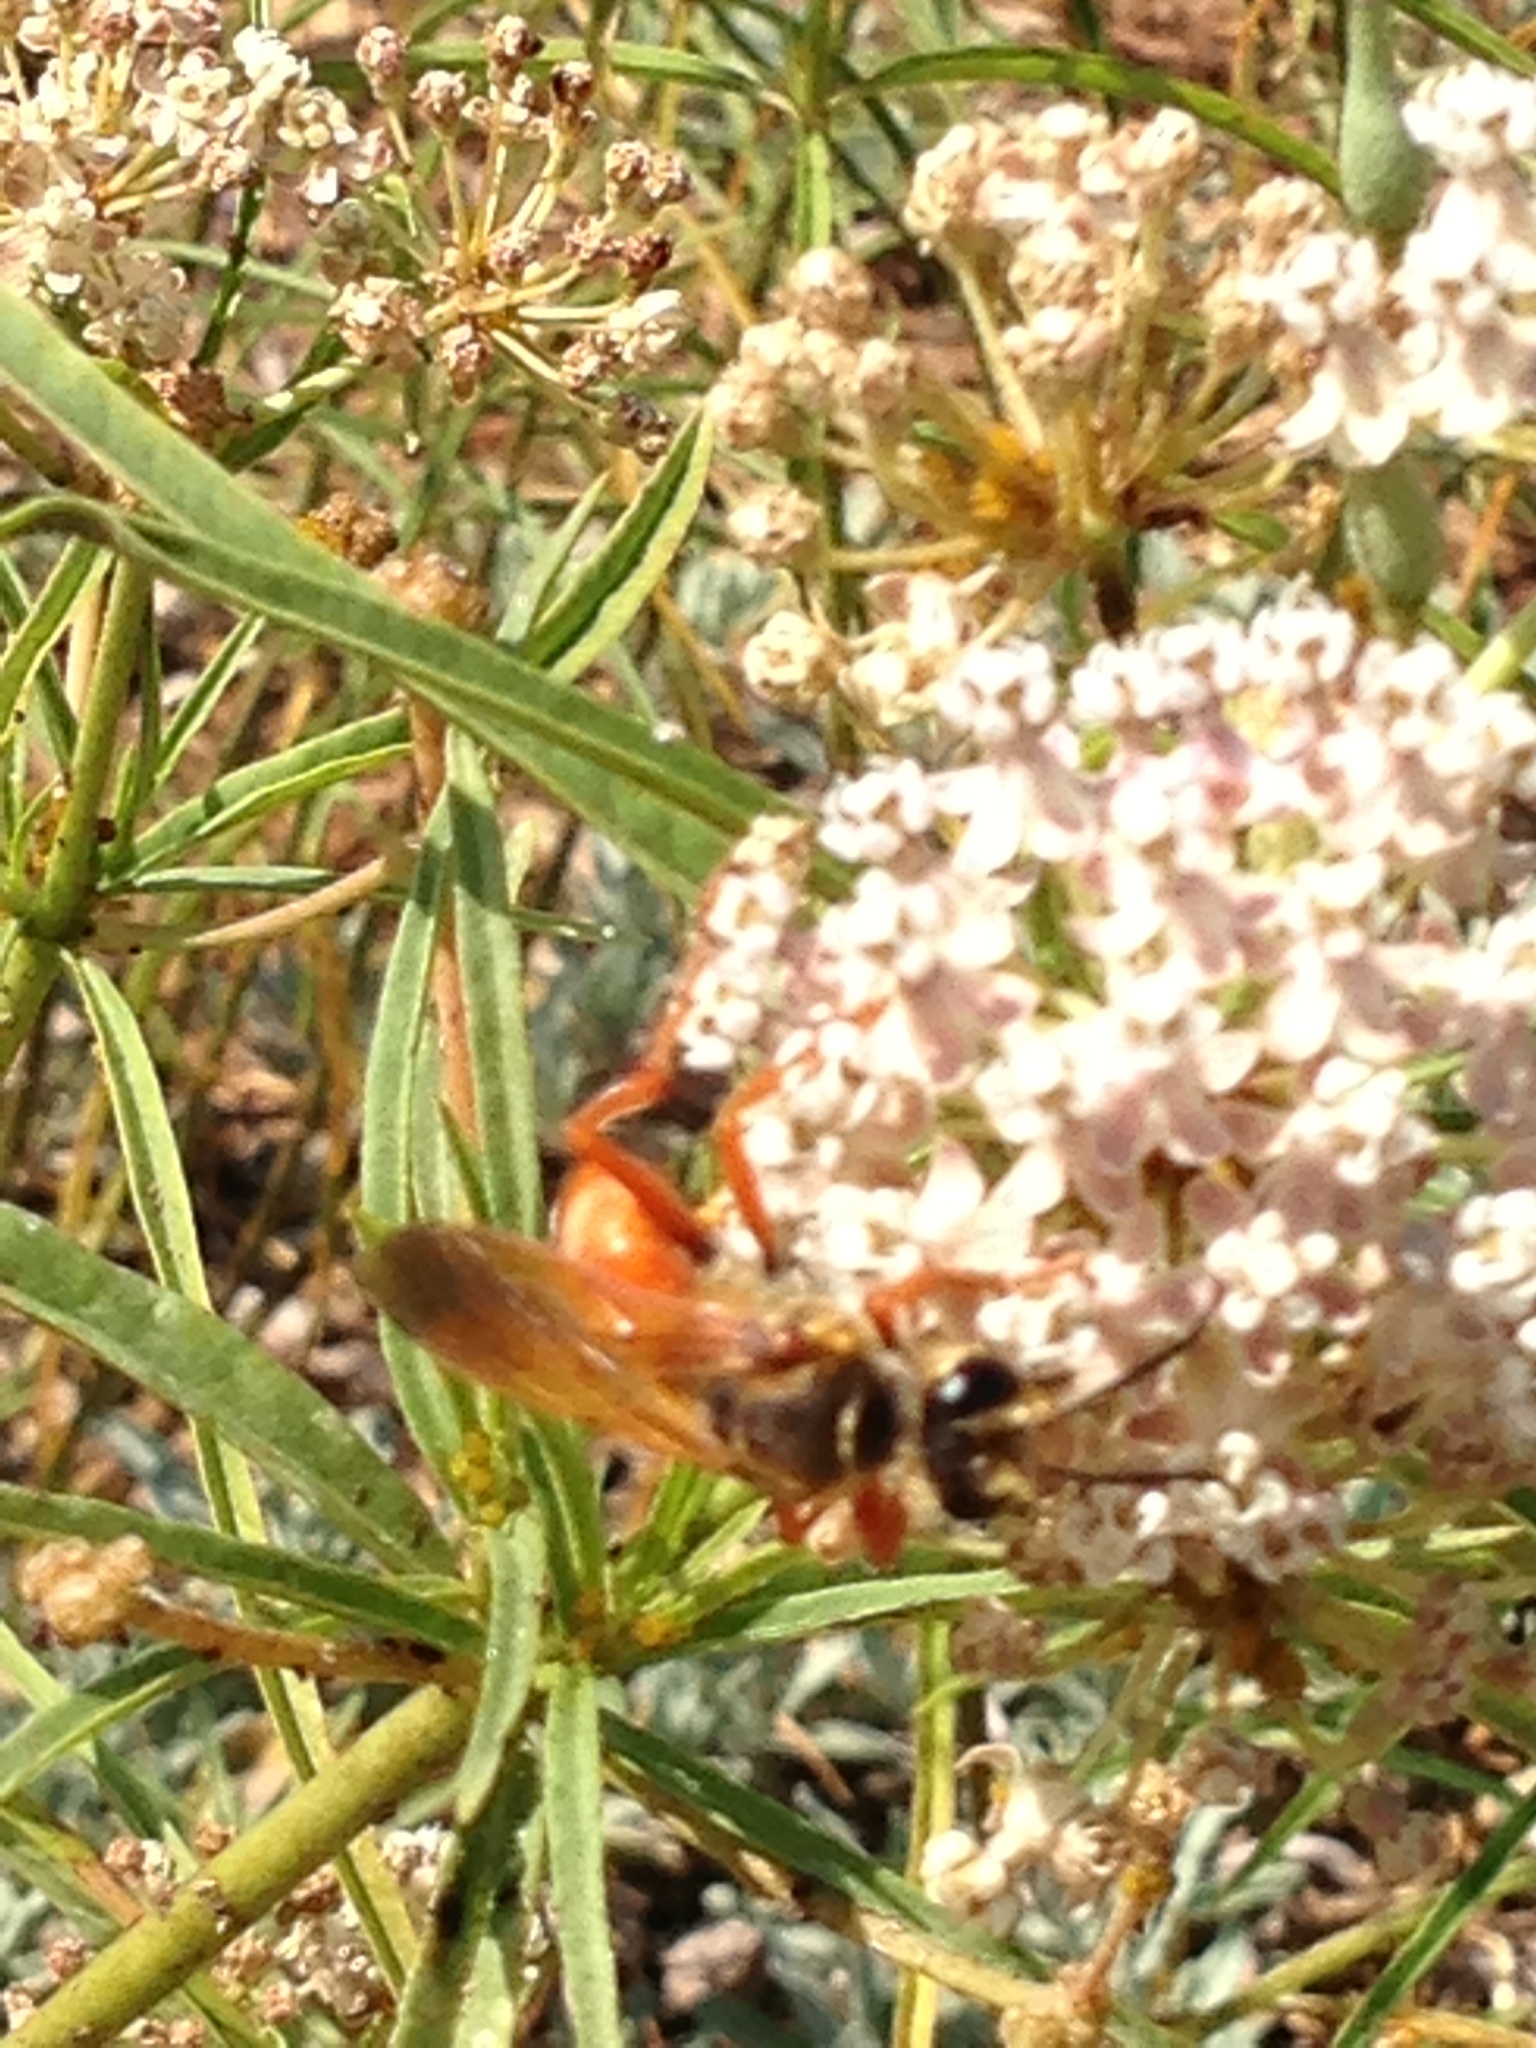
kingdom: Animalia
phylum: Arthropoda
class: Insecta
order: Hymenoptera
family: Sphecidae
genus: Sphex
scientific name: Sphex ichneumoneus
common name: Great golden digger wasp
